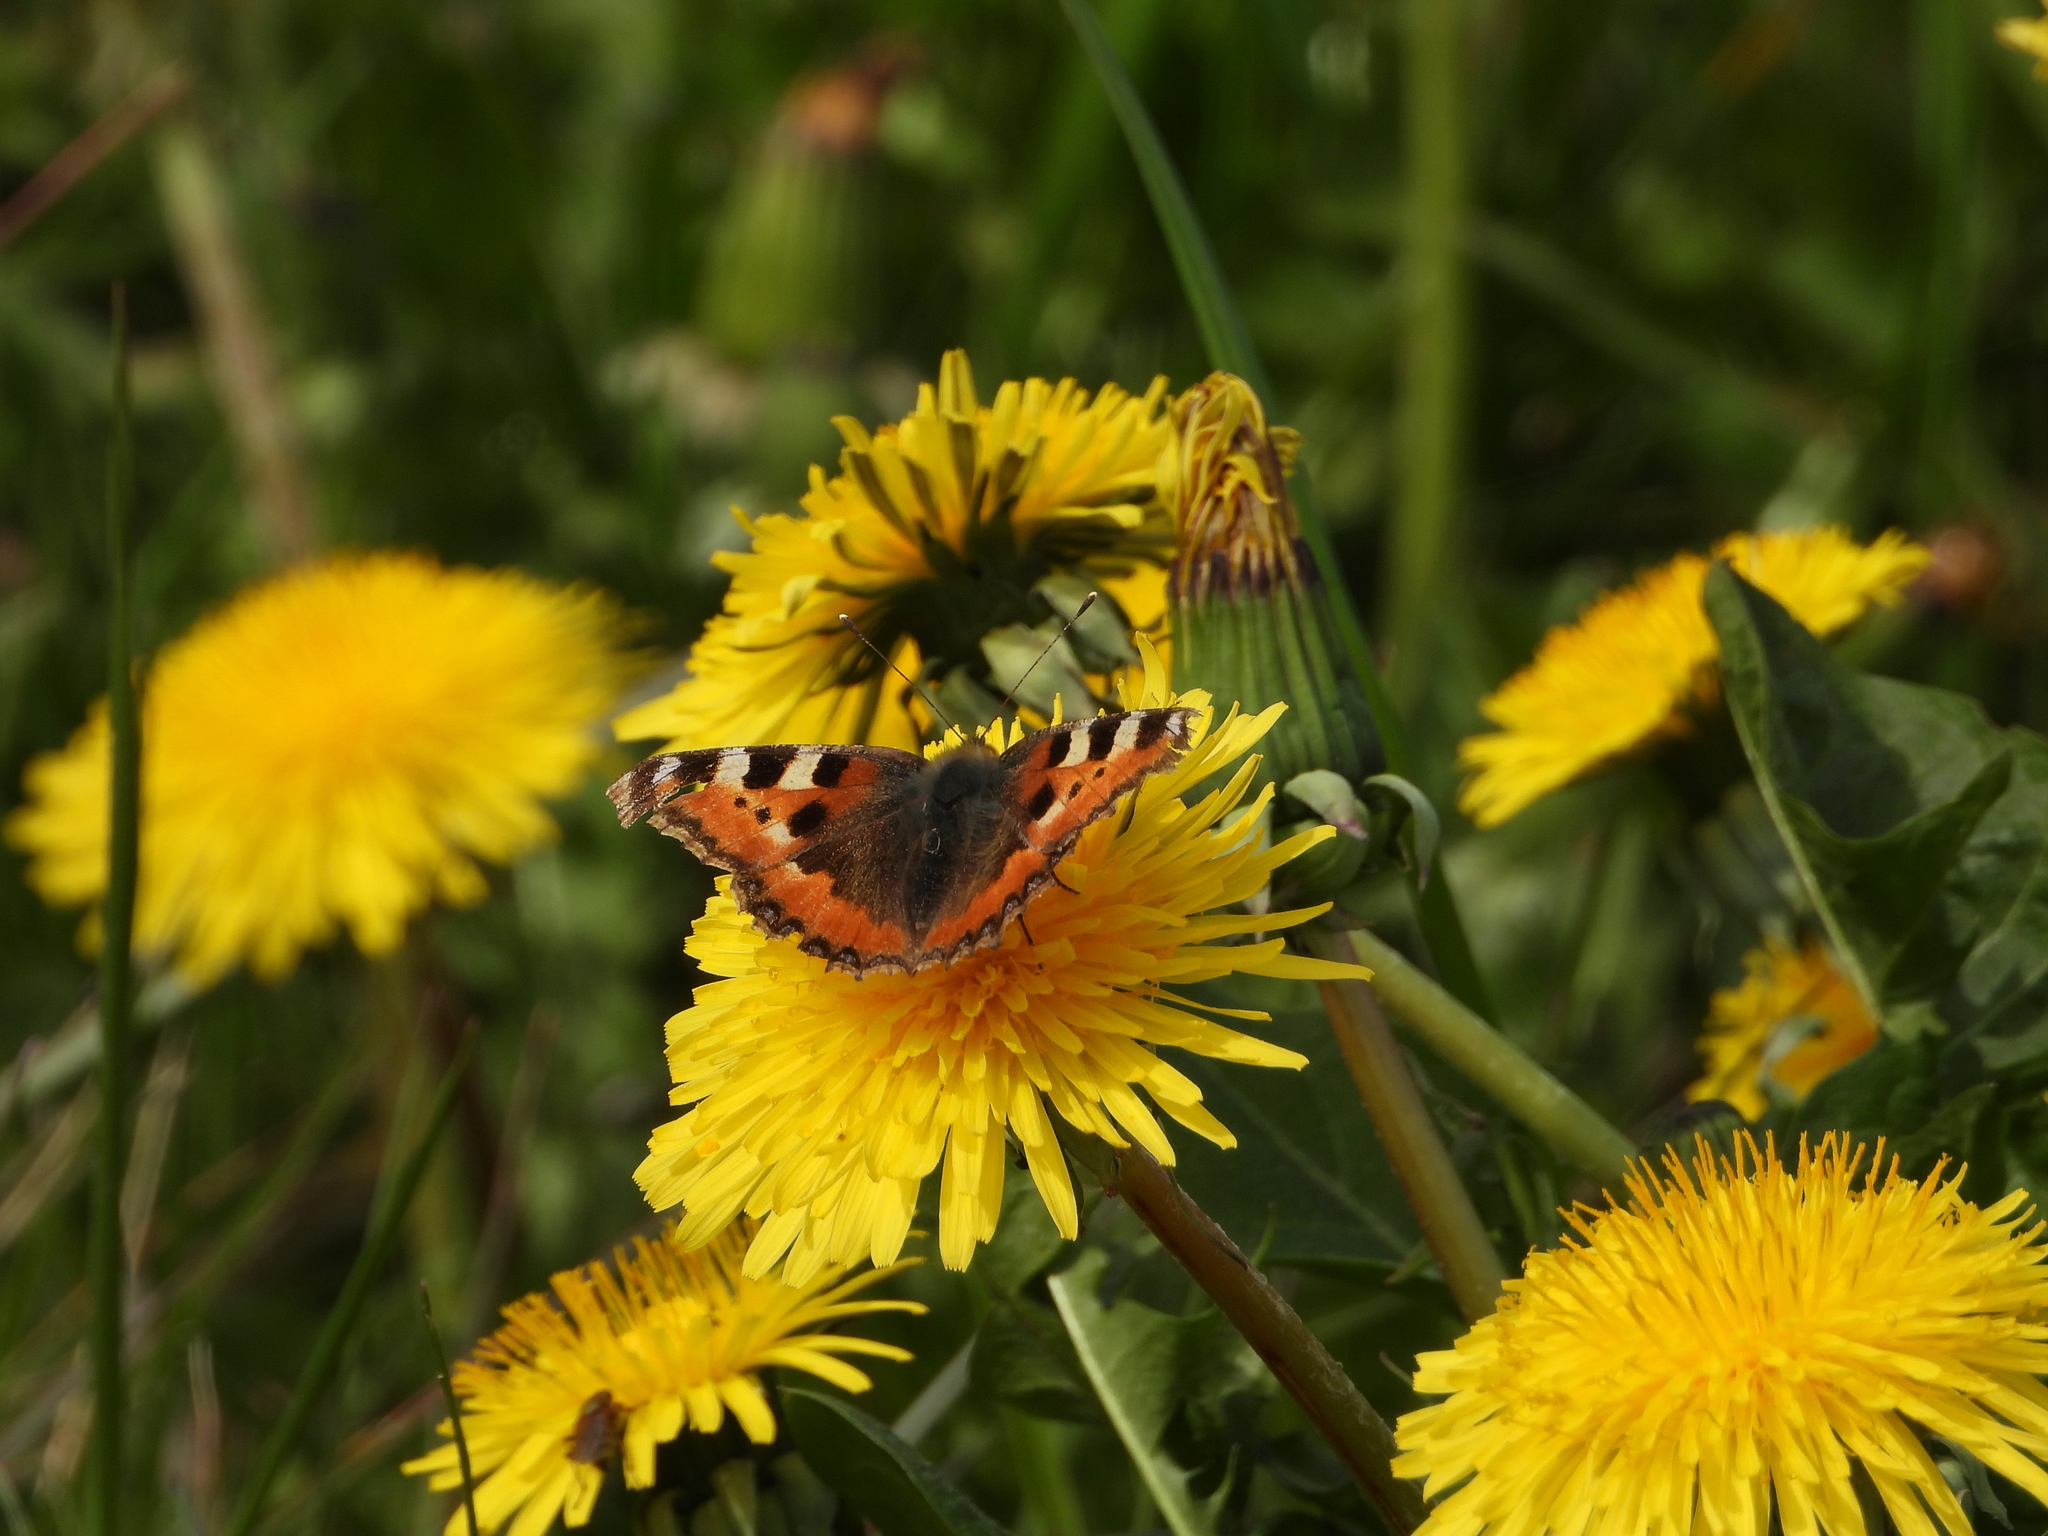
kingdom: Animalia
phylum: Arthropoda
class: Insecta
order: Lepidoptera
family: Nymphalidae
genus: Aglais
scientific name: Aglais urticae
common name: Small tortoiseshell
